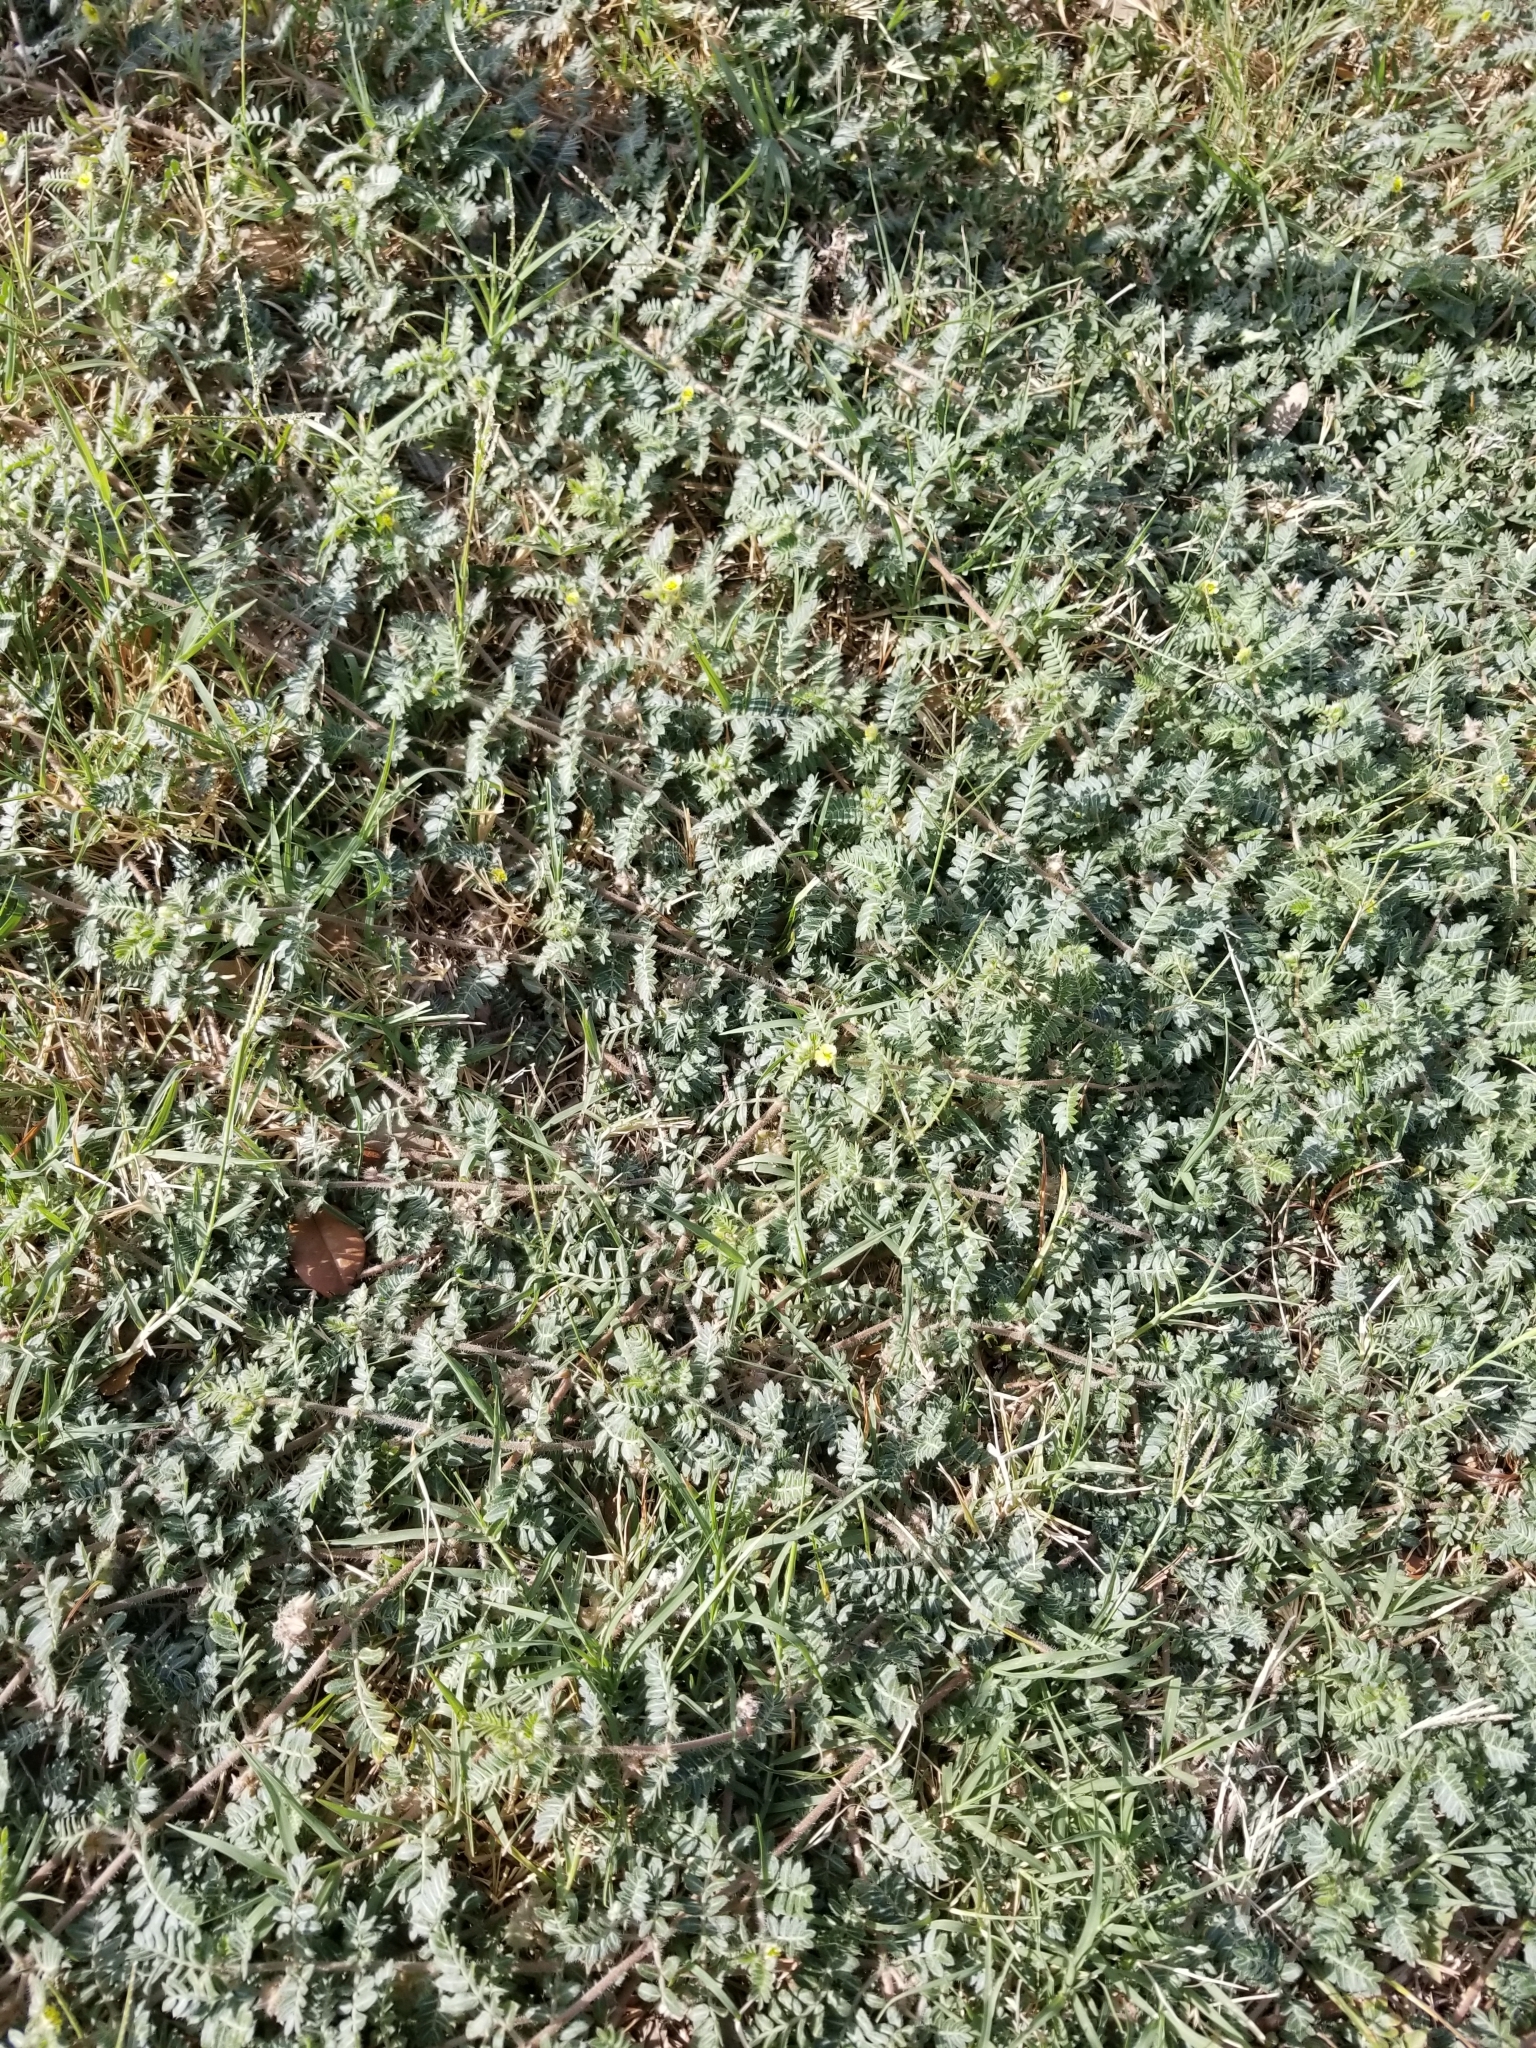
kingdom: Plantae
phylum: Tracheophyta
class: Magnoliopsida
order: Zygophyllales
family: Zygophyllaceae
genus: Tribulus
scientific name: Tribulus terrestris
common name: Puncturevine
